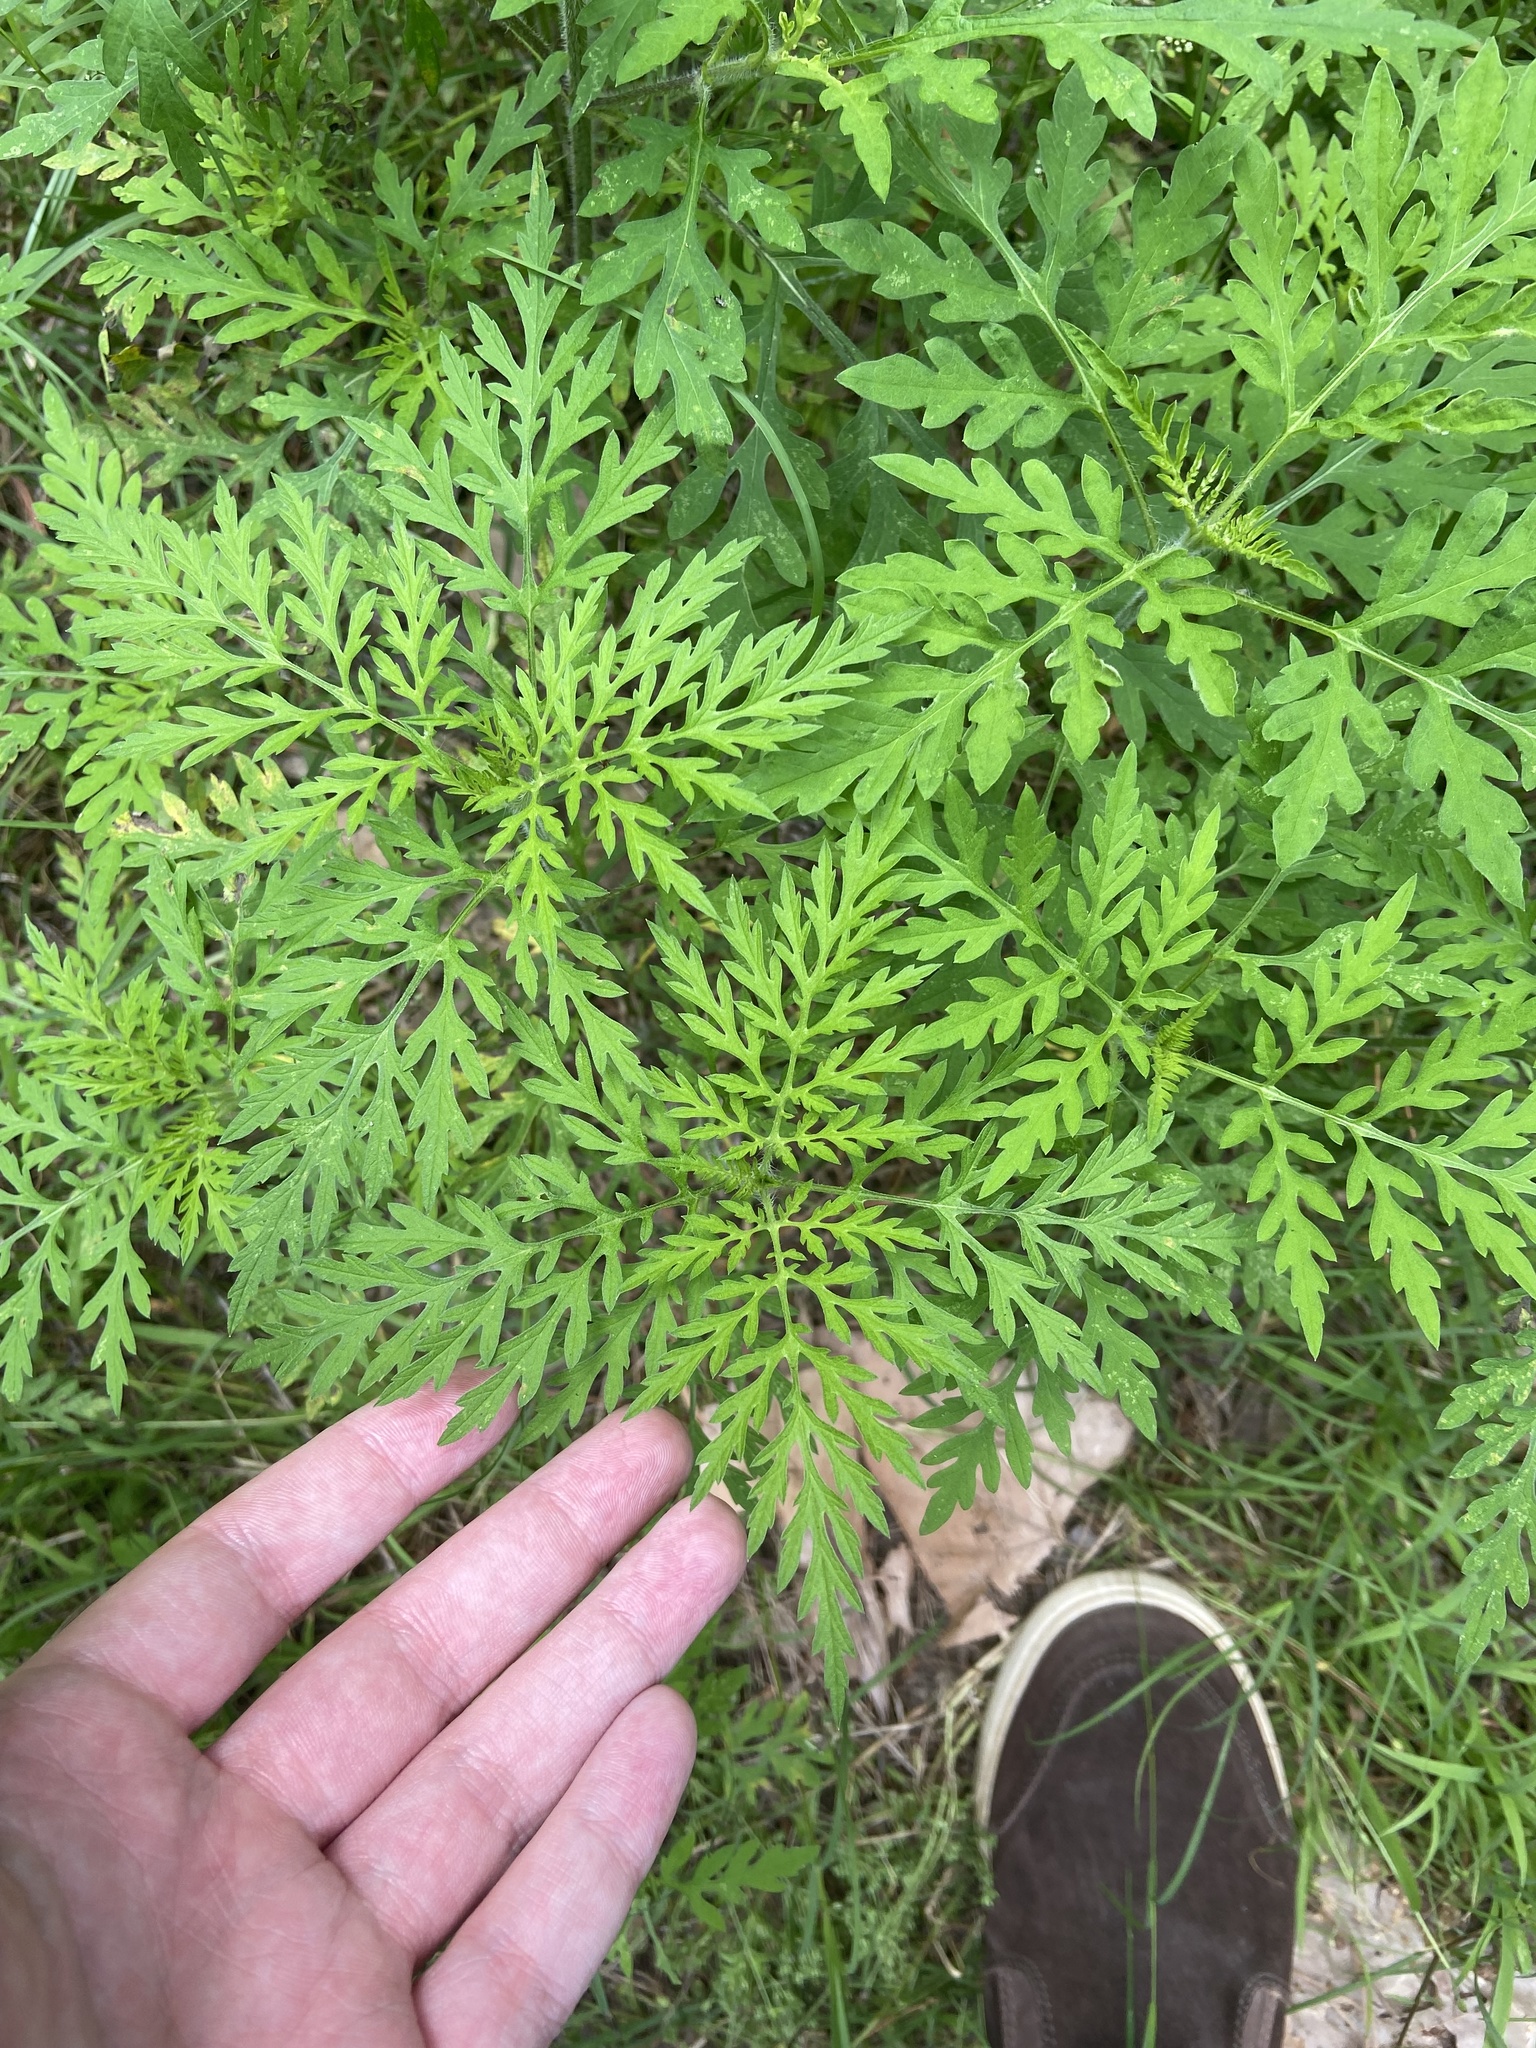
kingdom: Plantae
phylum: Tracheophyta
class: Magnoliopsida
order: Asterales
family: Asteraceae
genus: Ambrosia
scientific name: Ambrosia artemisiifolia
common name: Annual ragweed
